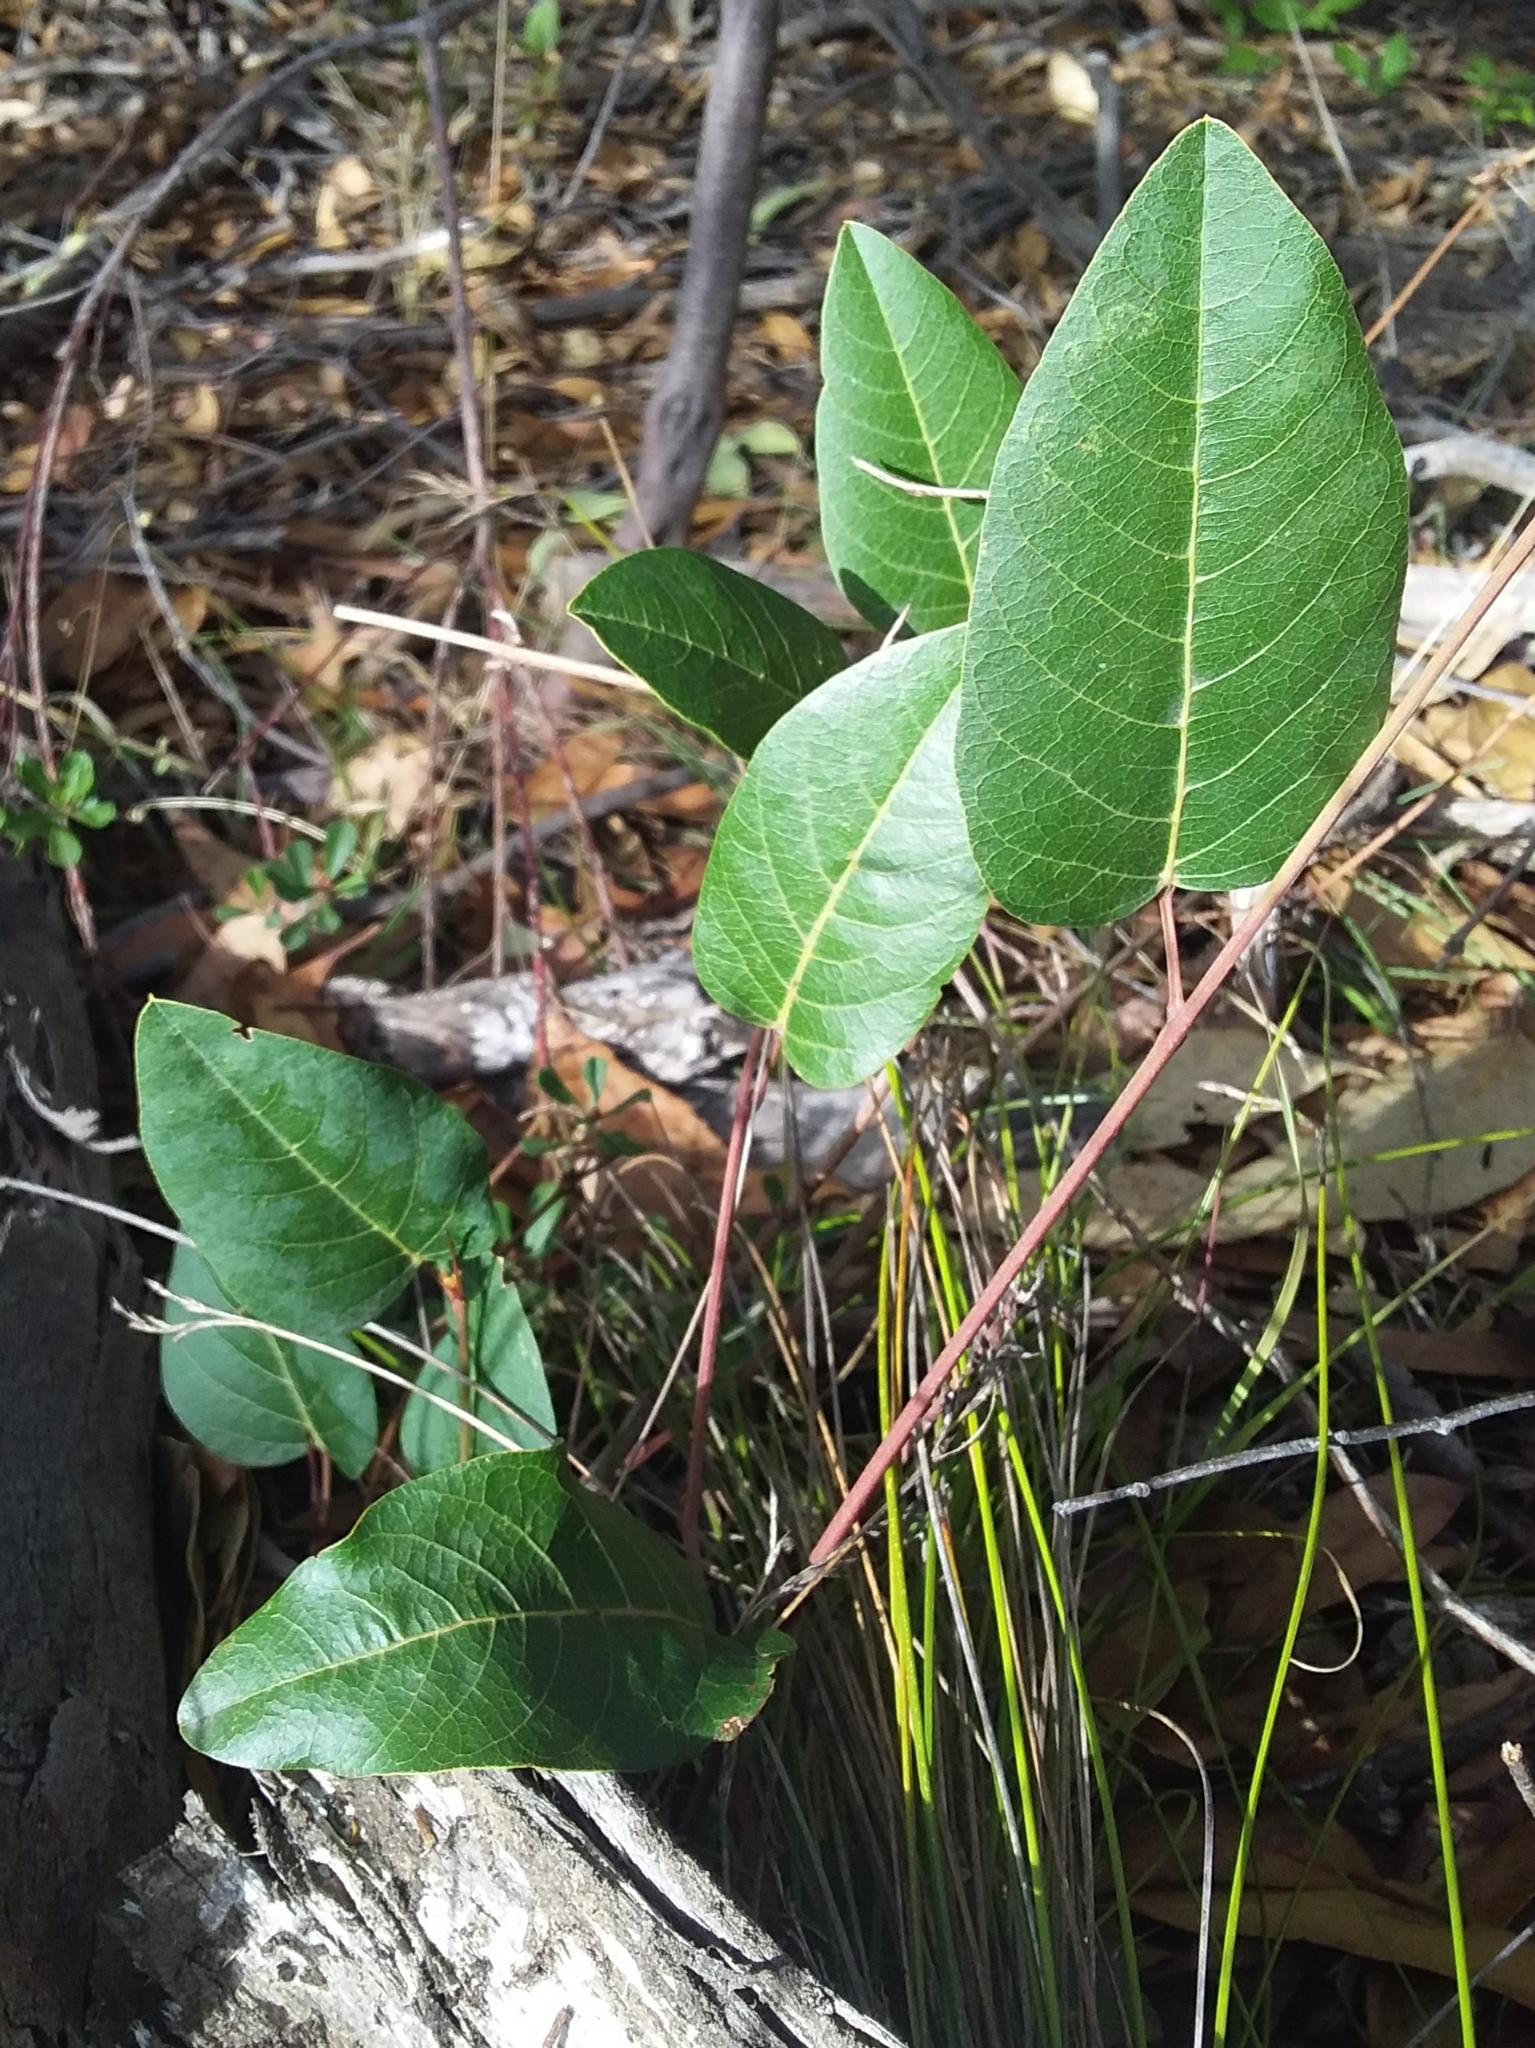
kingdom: Plantae
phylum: Tracheophyta
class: Magnoliopsida
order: Fabales
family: Fabaceae
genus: Hardenbergia
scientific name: Hardenbergia violacea
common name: Coral-pea
